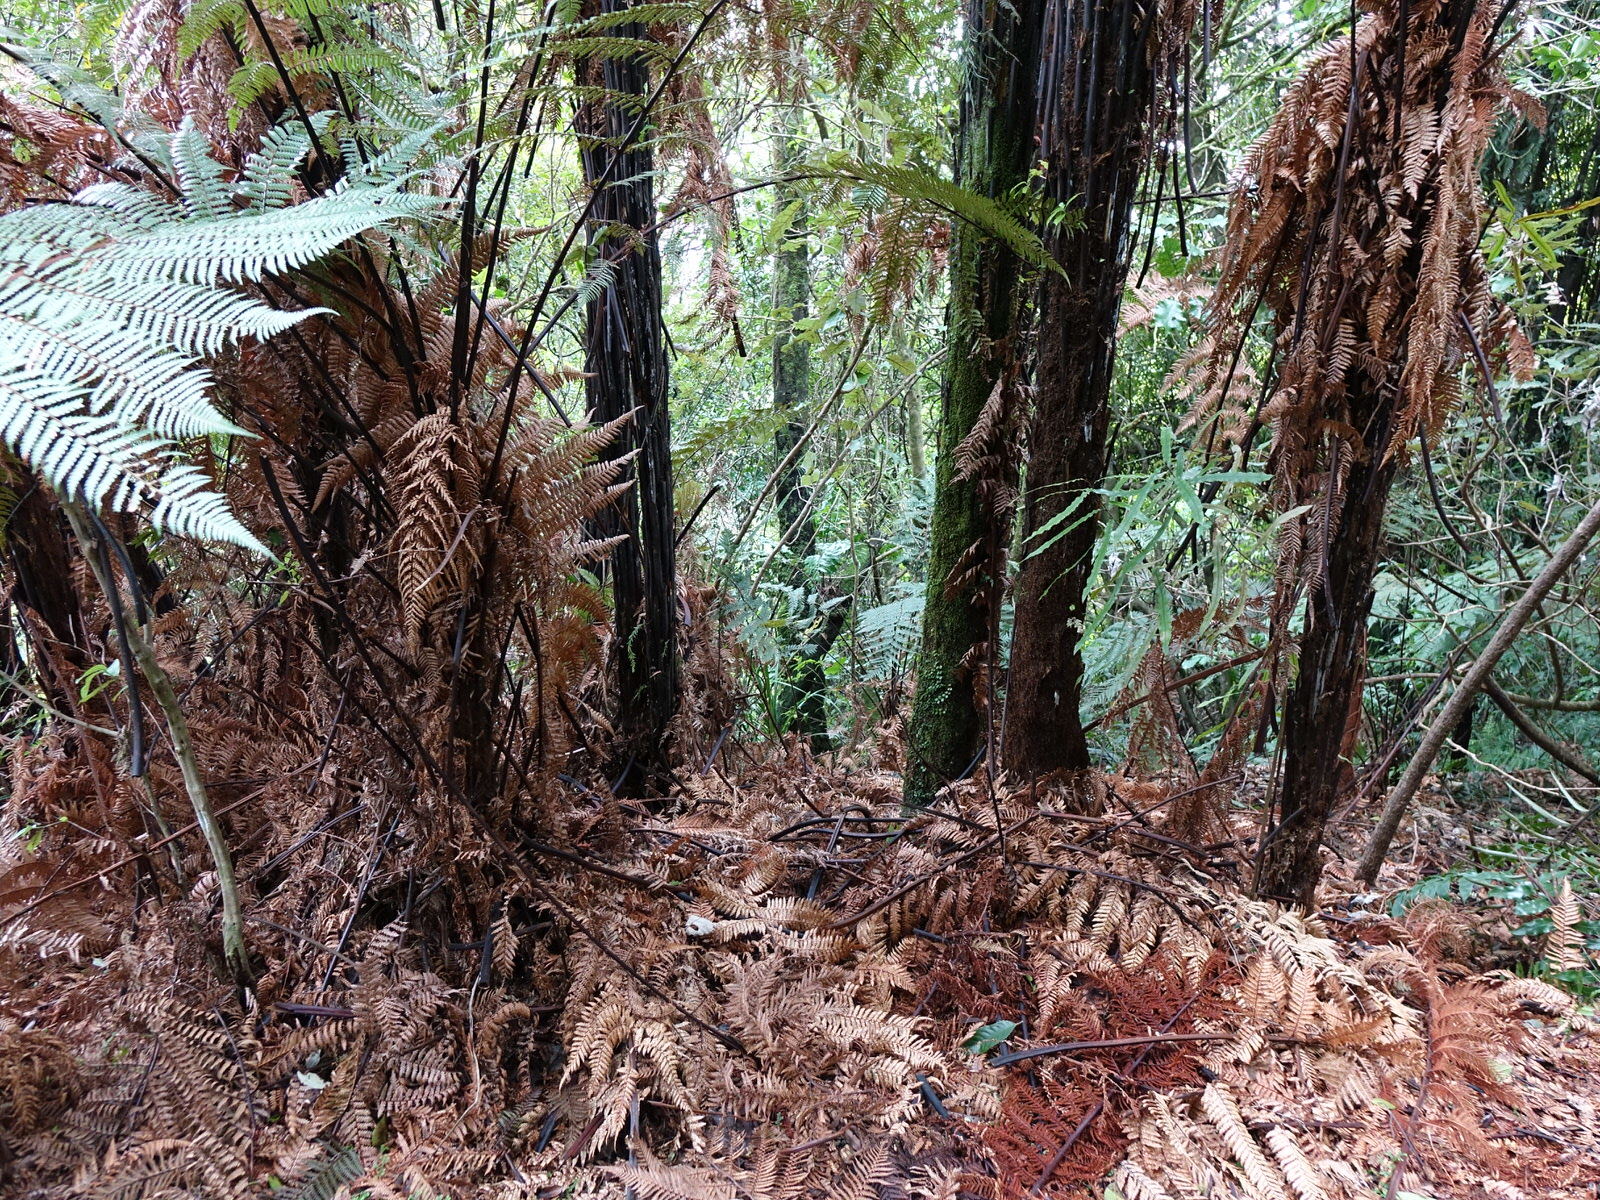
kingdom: Plantae
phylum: Tracheophyta
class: Polypodiopsida
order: Cyatheales
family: Dicksoniaceae
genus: Dicksonia
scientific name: Dicksonia squarrosa
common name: Hard treefern
